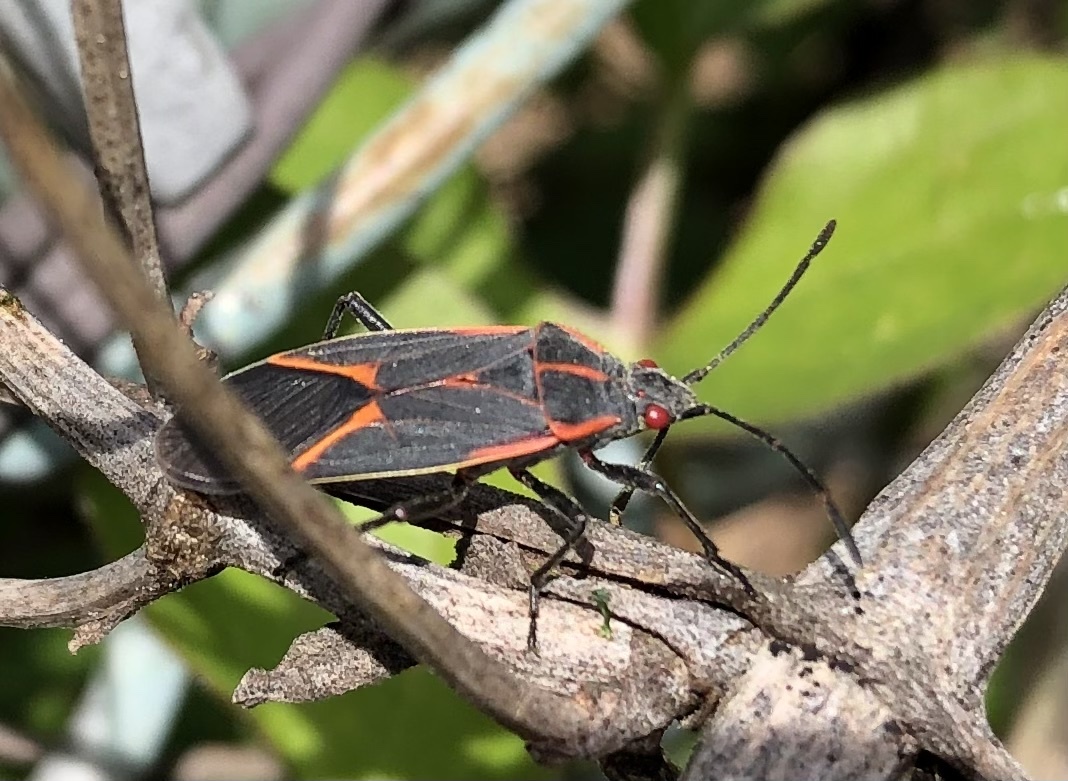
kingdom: Animalia
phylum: Arthropoda
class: Insecta
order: Hemiptera
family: Rhopalidae
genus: Boisea
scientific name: Boisea trivittata
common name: Boxelder bug
